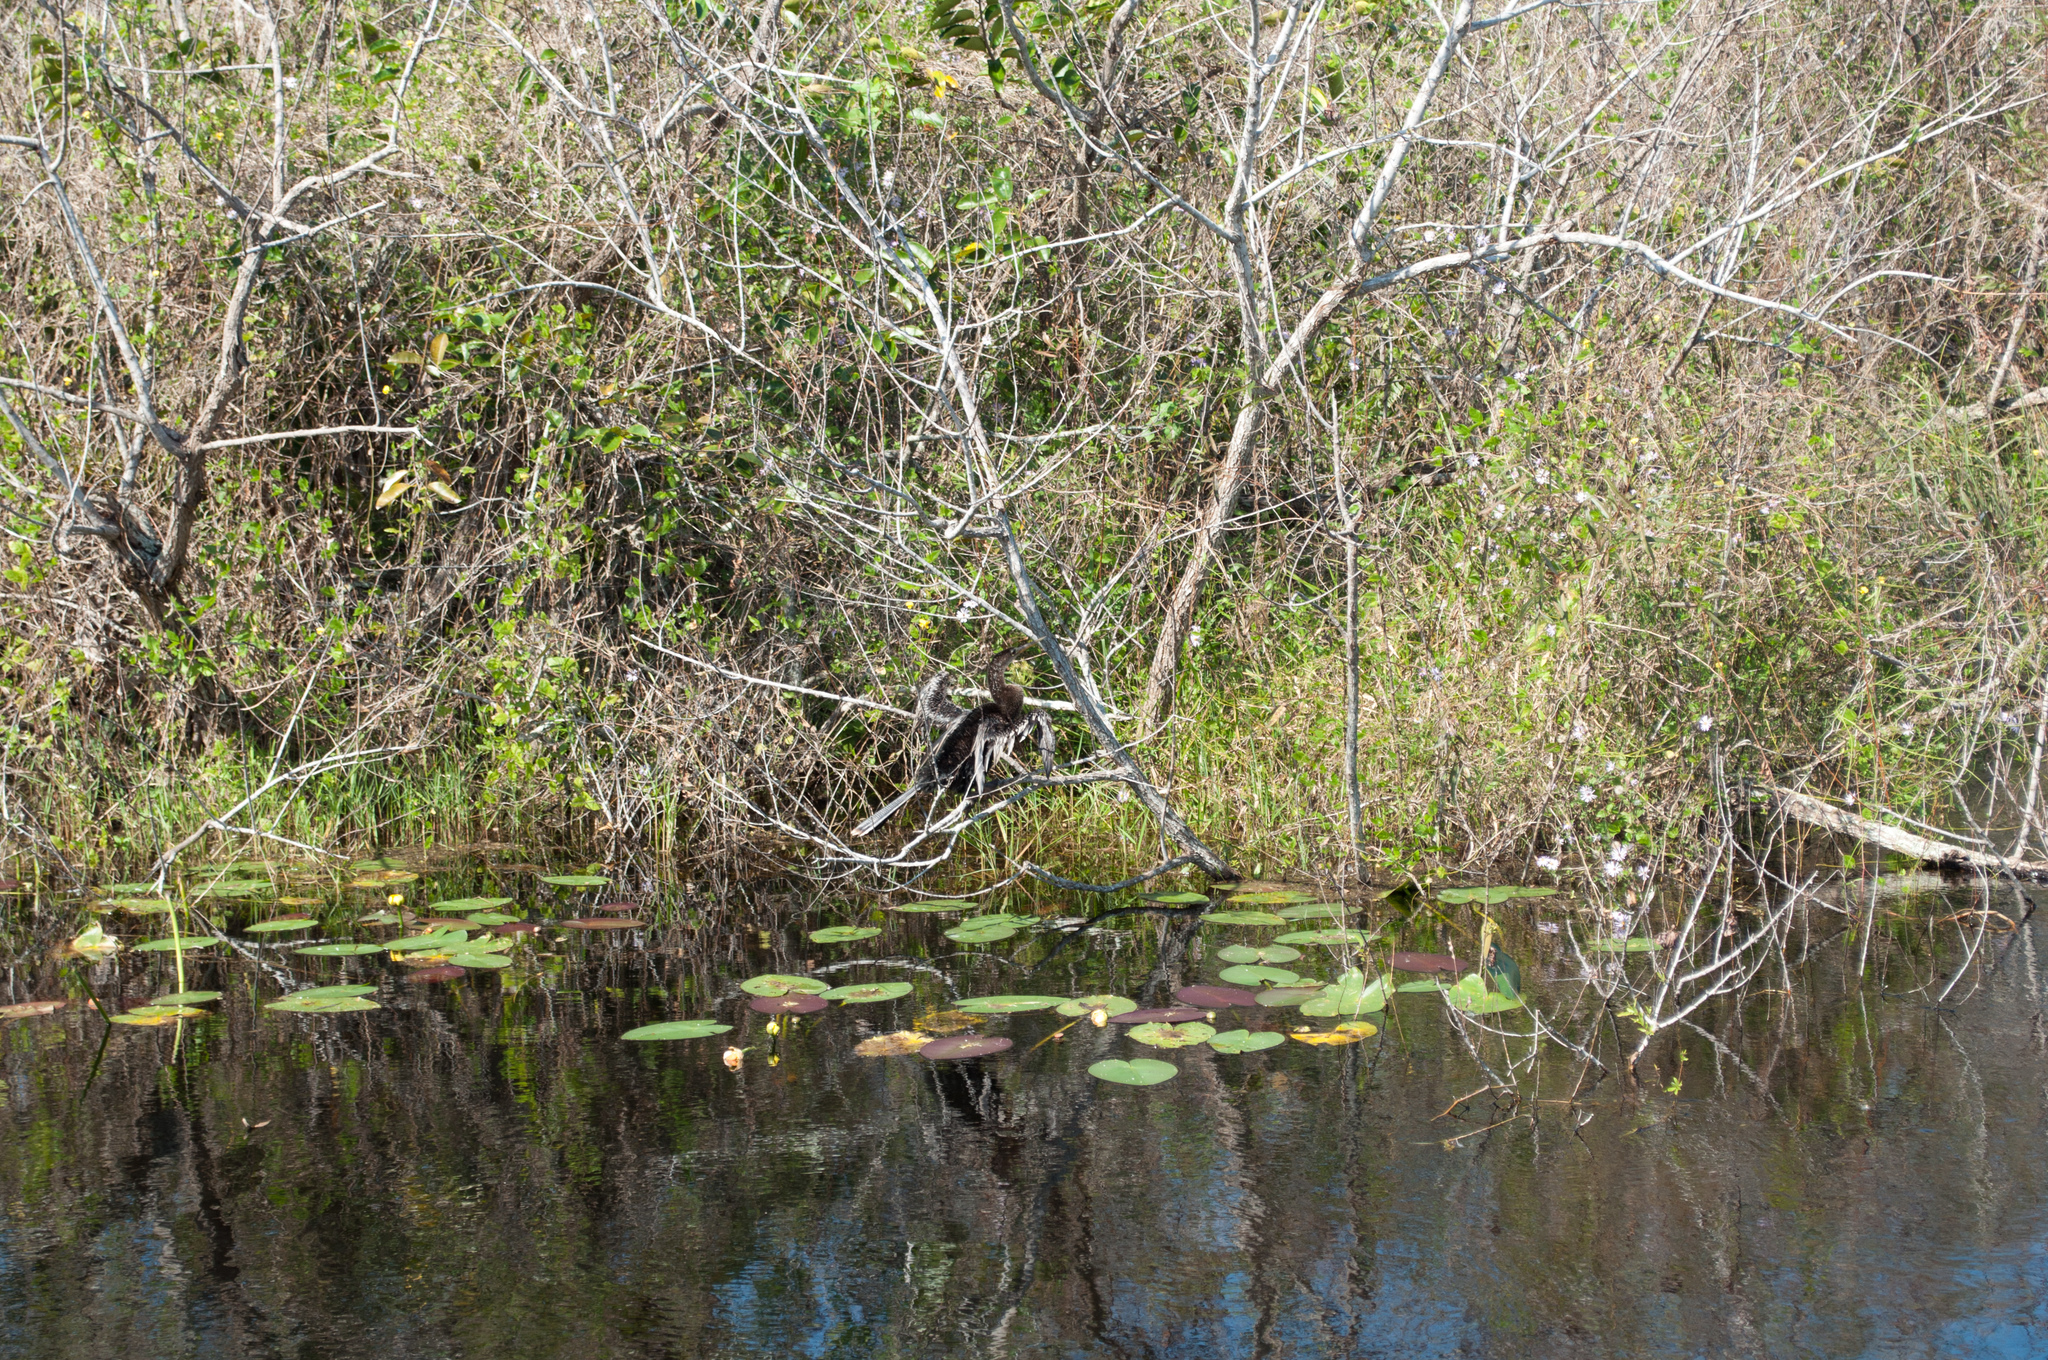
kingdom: Animalia
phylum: Chordata
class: Aves
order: Suliformes
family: Anhingidae
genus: Anhinga
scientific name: Anhinga anhinga
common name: Anhinga
